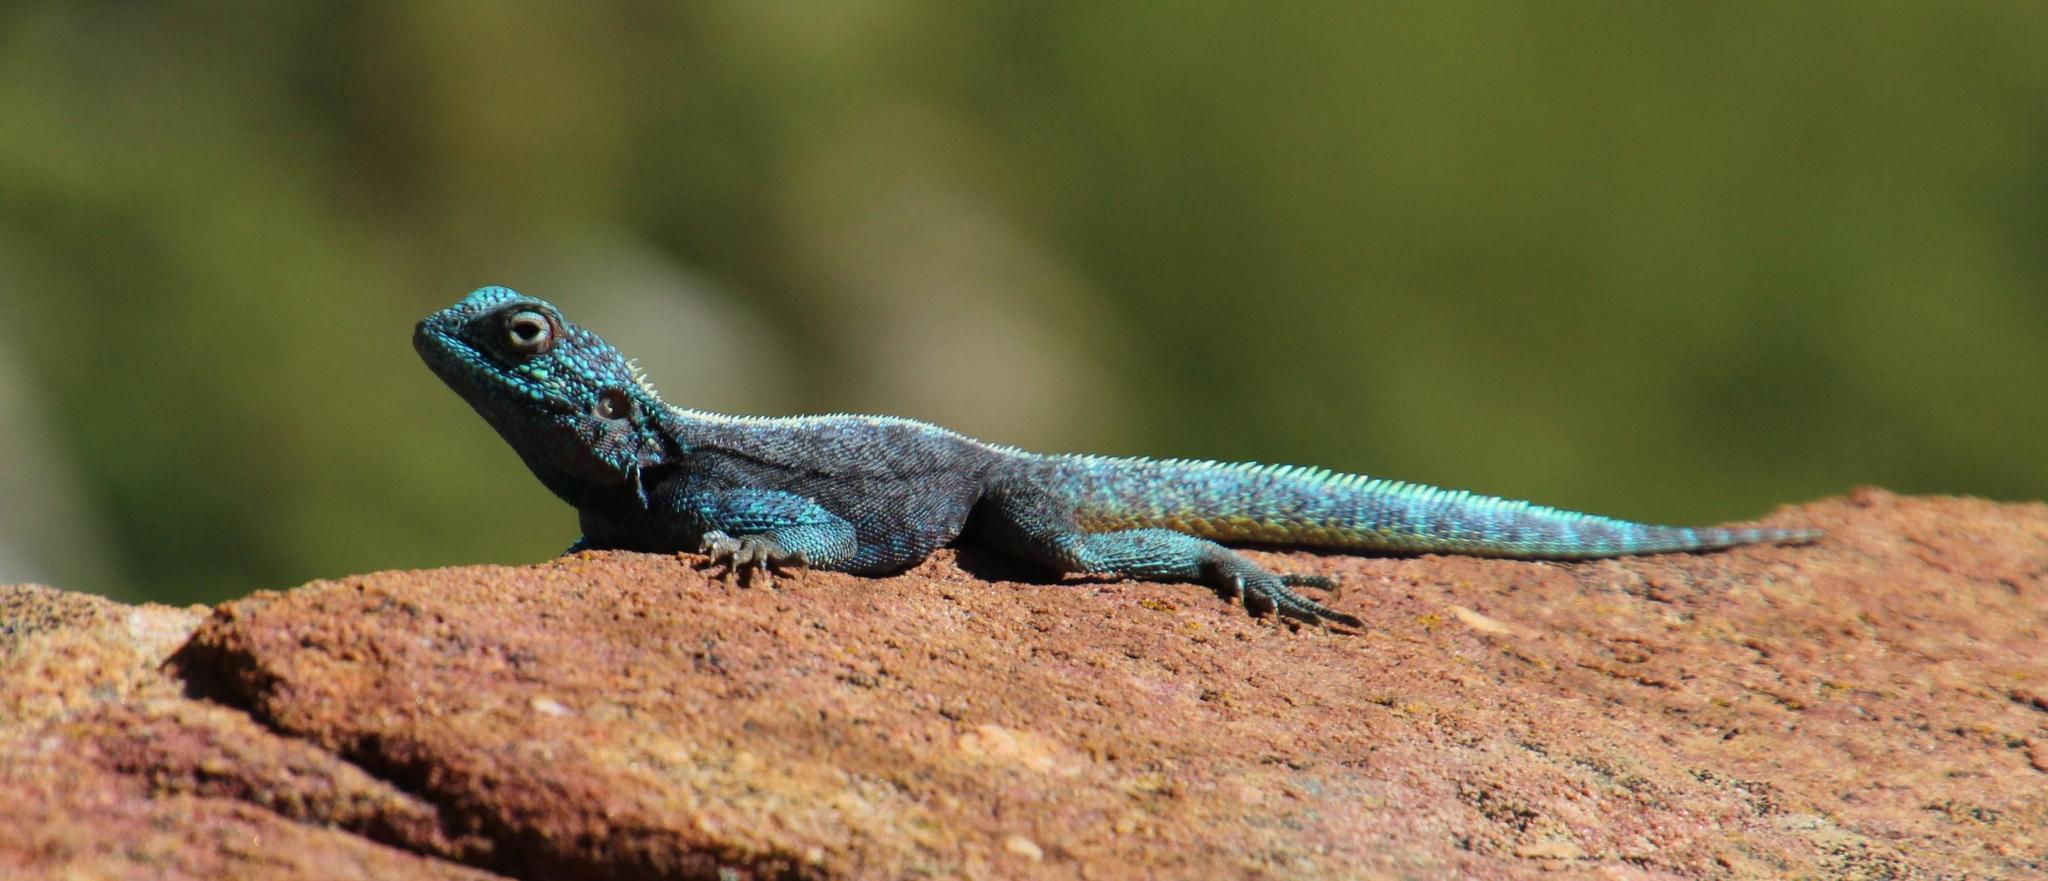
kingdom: Animalia
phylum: Chordata
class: Squamata
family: Agamidae
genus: Agama
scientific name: Agama atra
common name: Southern african rock agama
